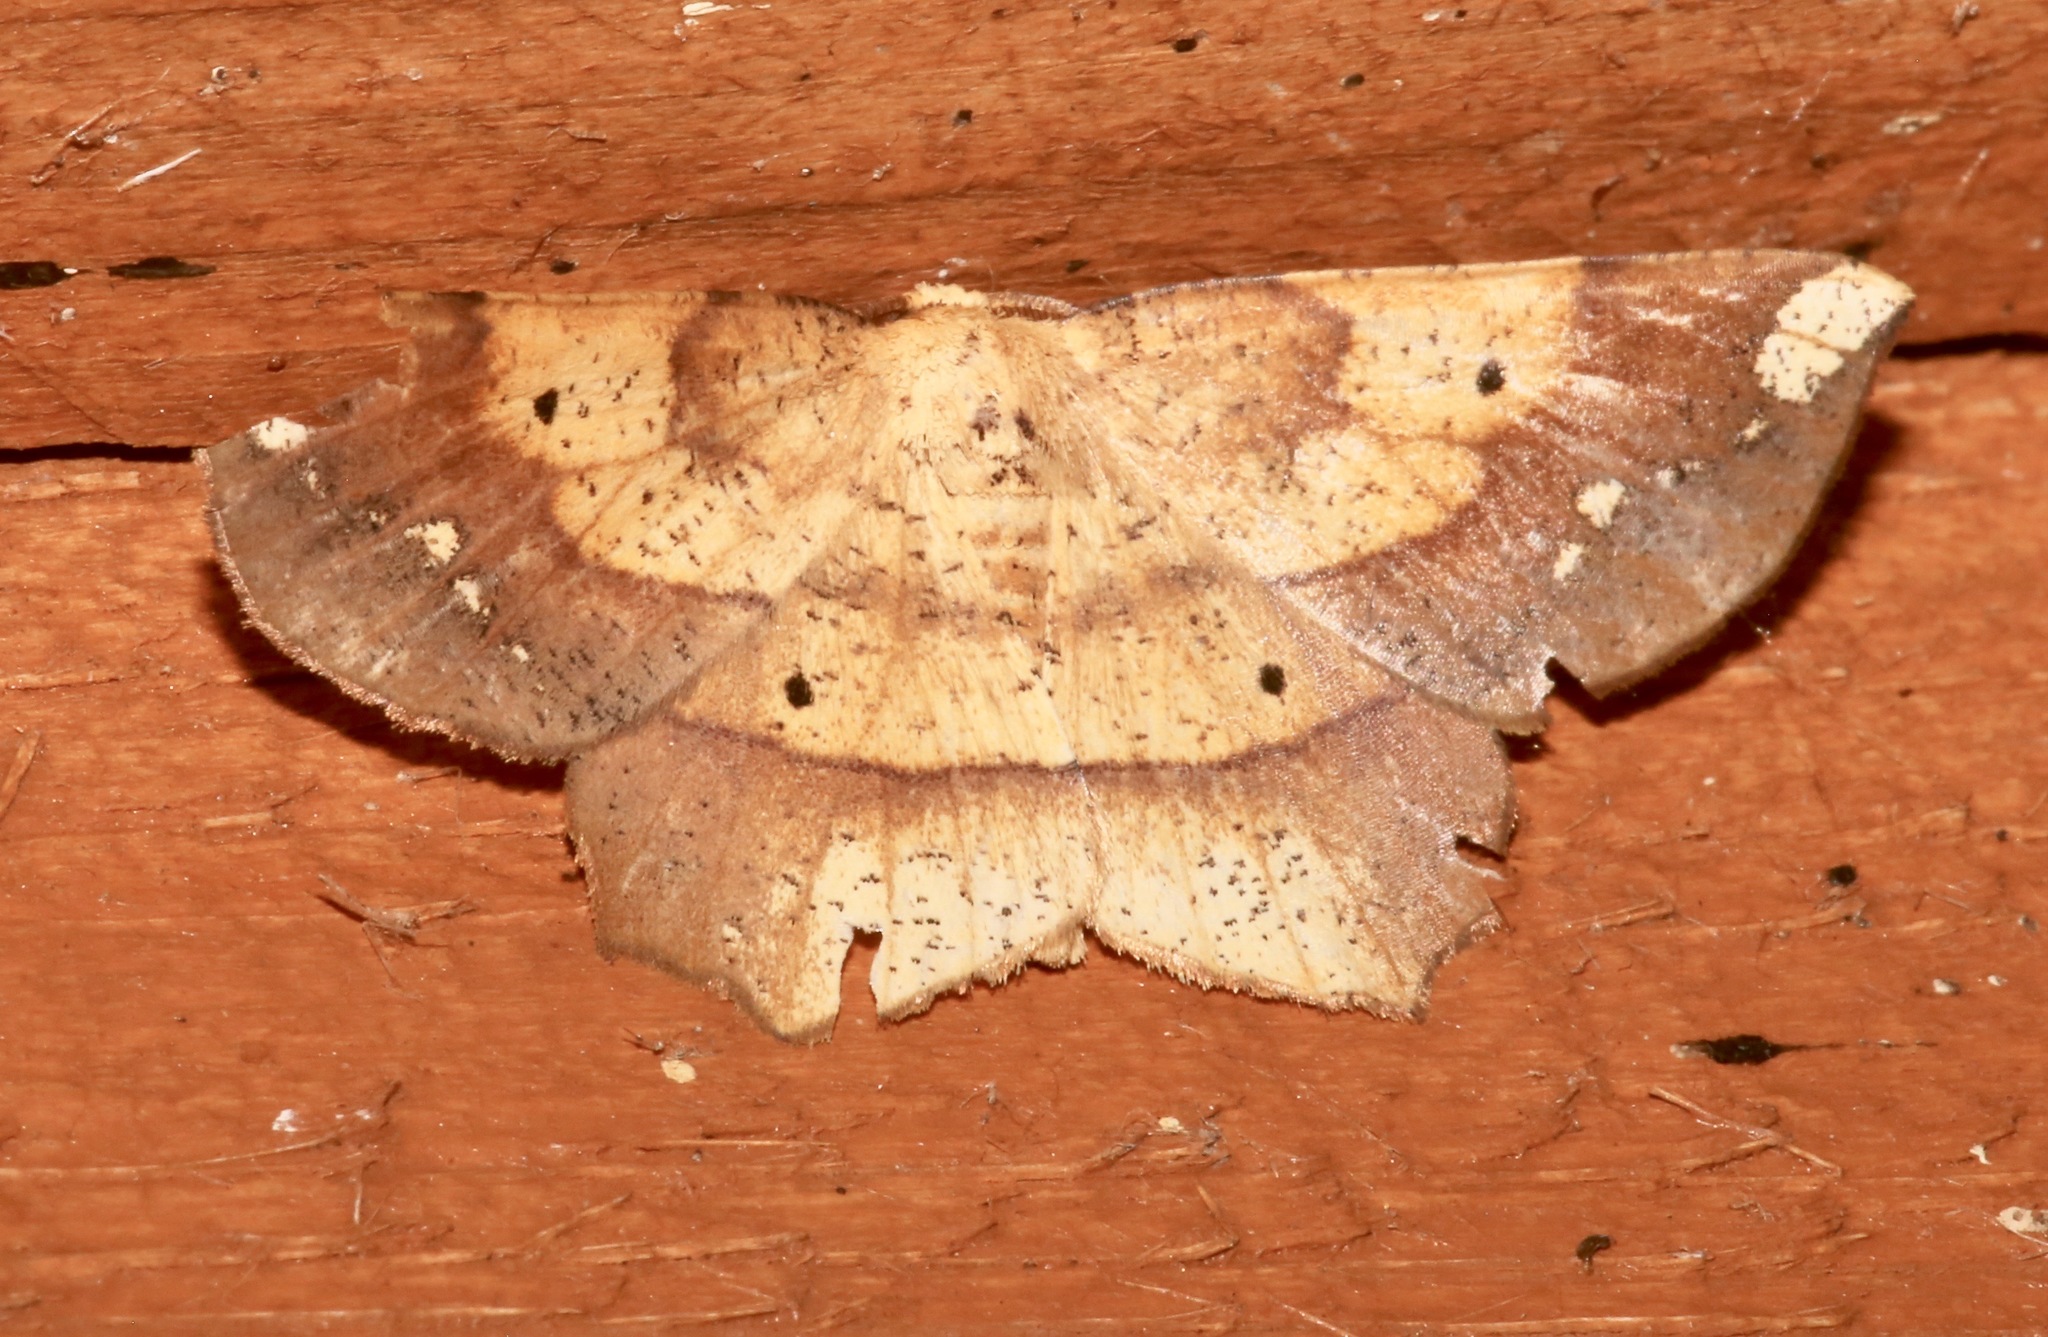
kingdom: Animalia
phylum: Arthropoda
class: Insecta
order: Lepidoptera
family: Geometridae
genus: Euchlaena
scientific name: Euchlaena amoenaria
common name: Deep yellow euchlaena
